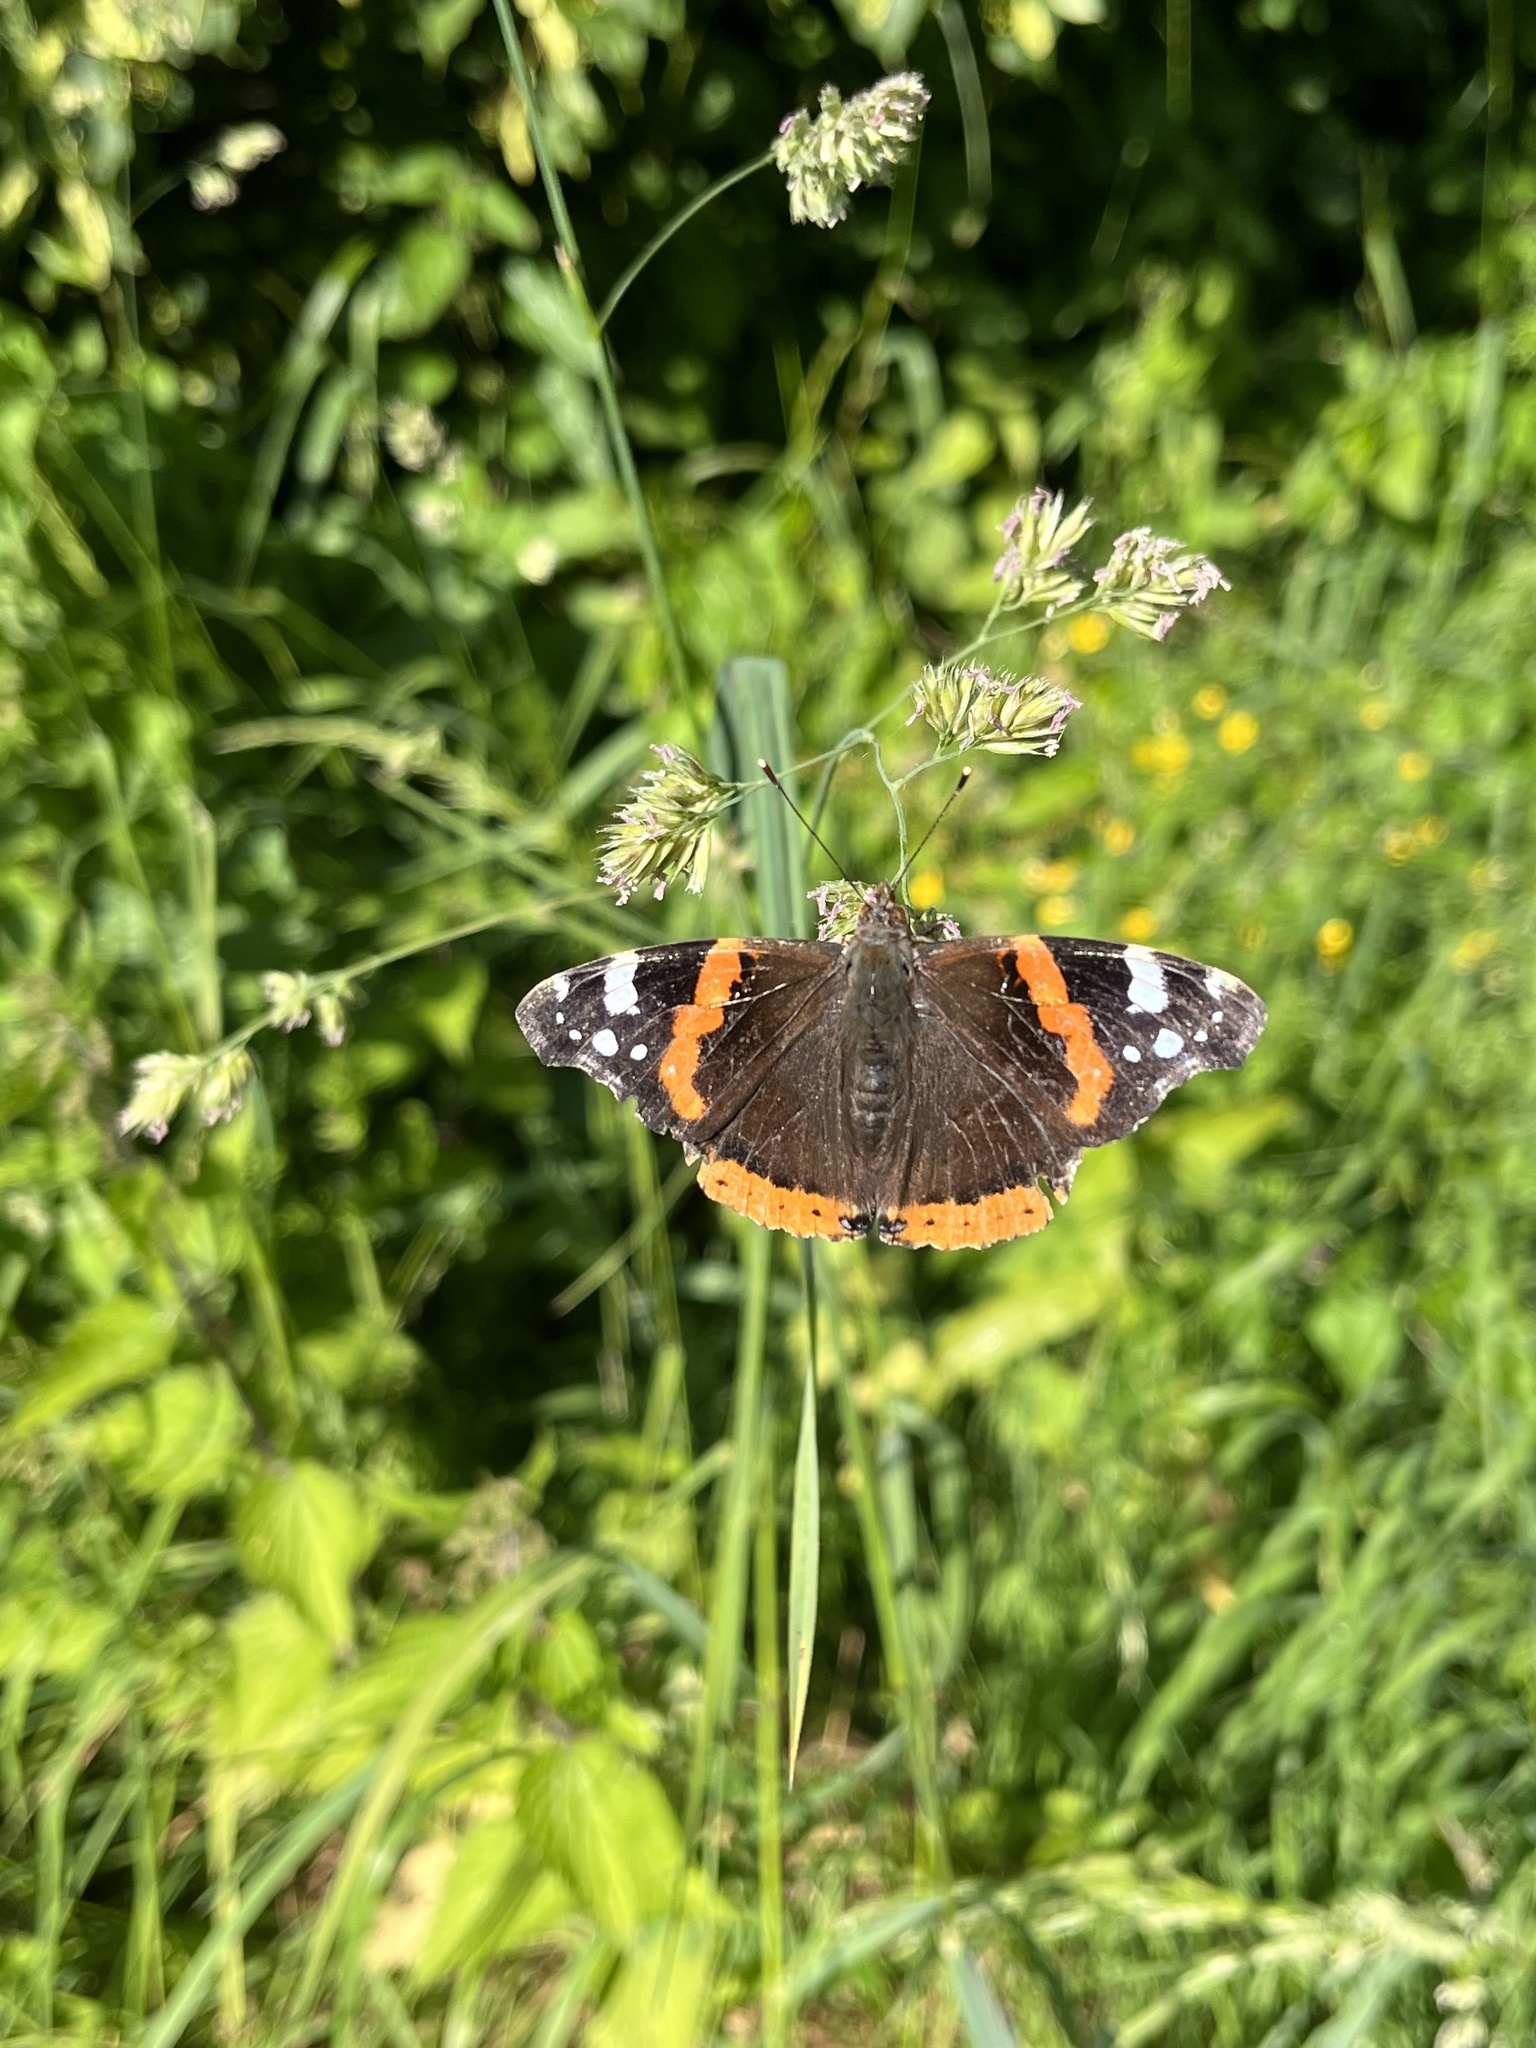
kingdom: Animalia
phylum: Arthropoda
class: Insecta
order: Lepidoptera
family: Nymphalidae
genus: Vanessa
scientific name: Vanessa atalanta
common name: Red admiral
